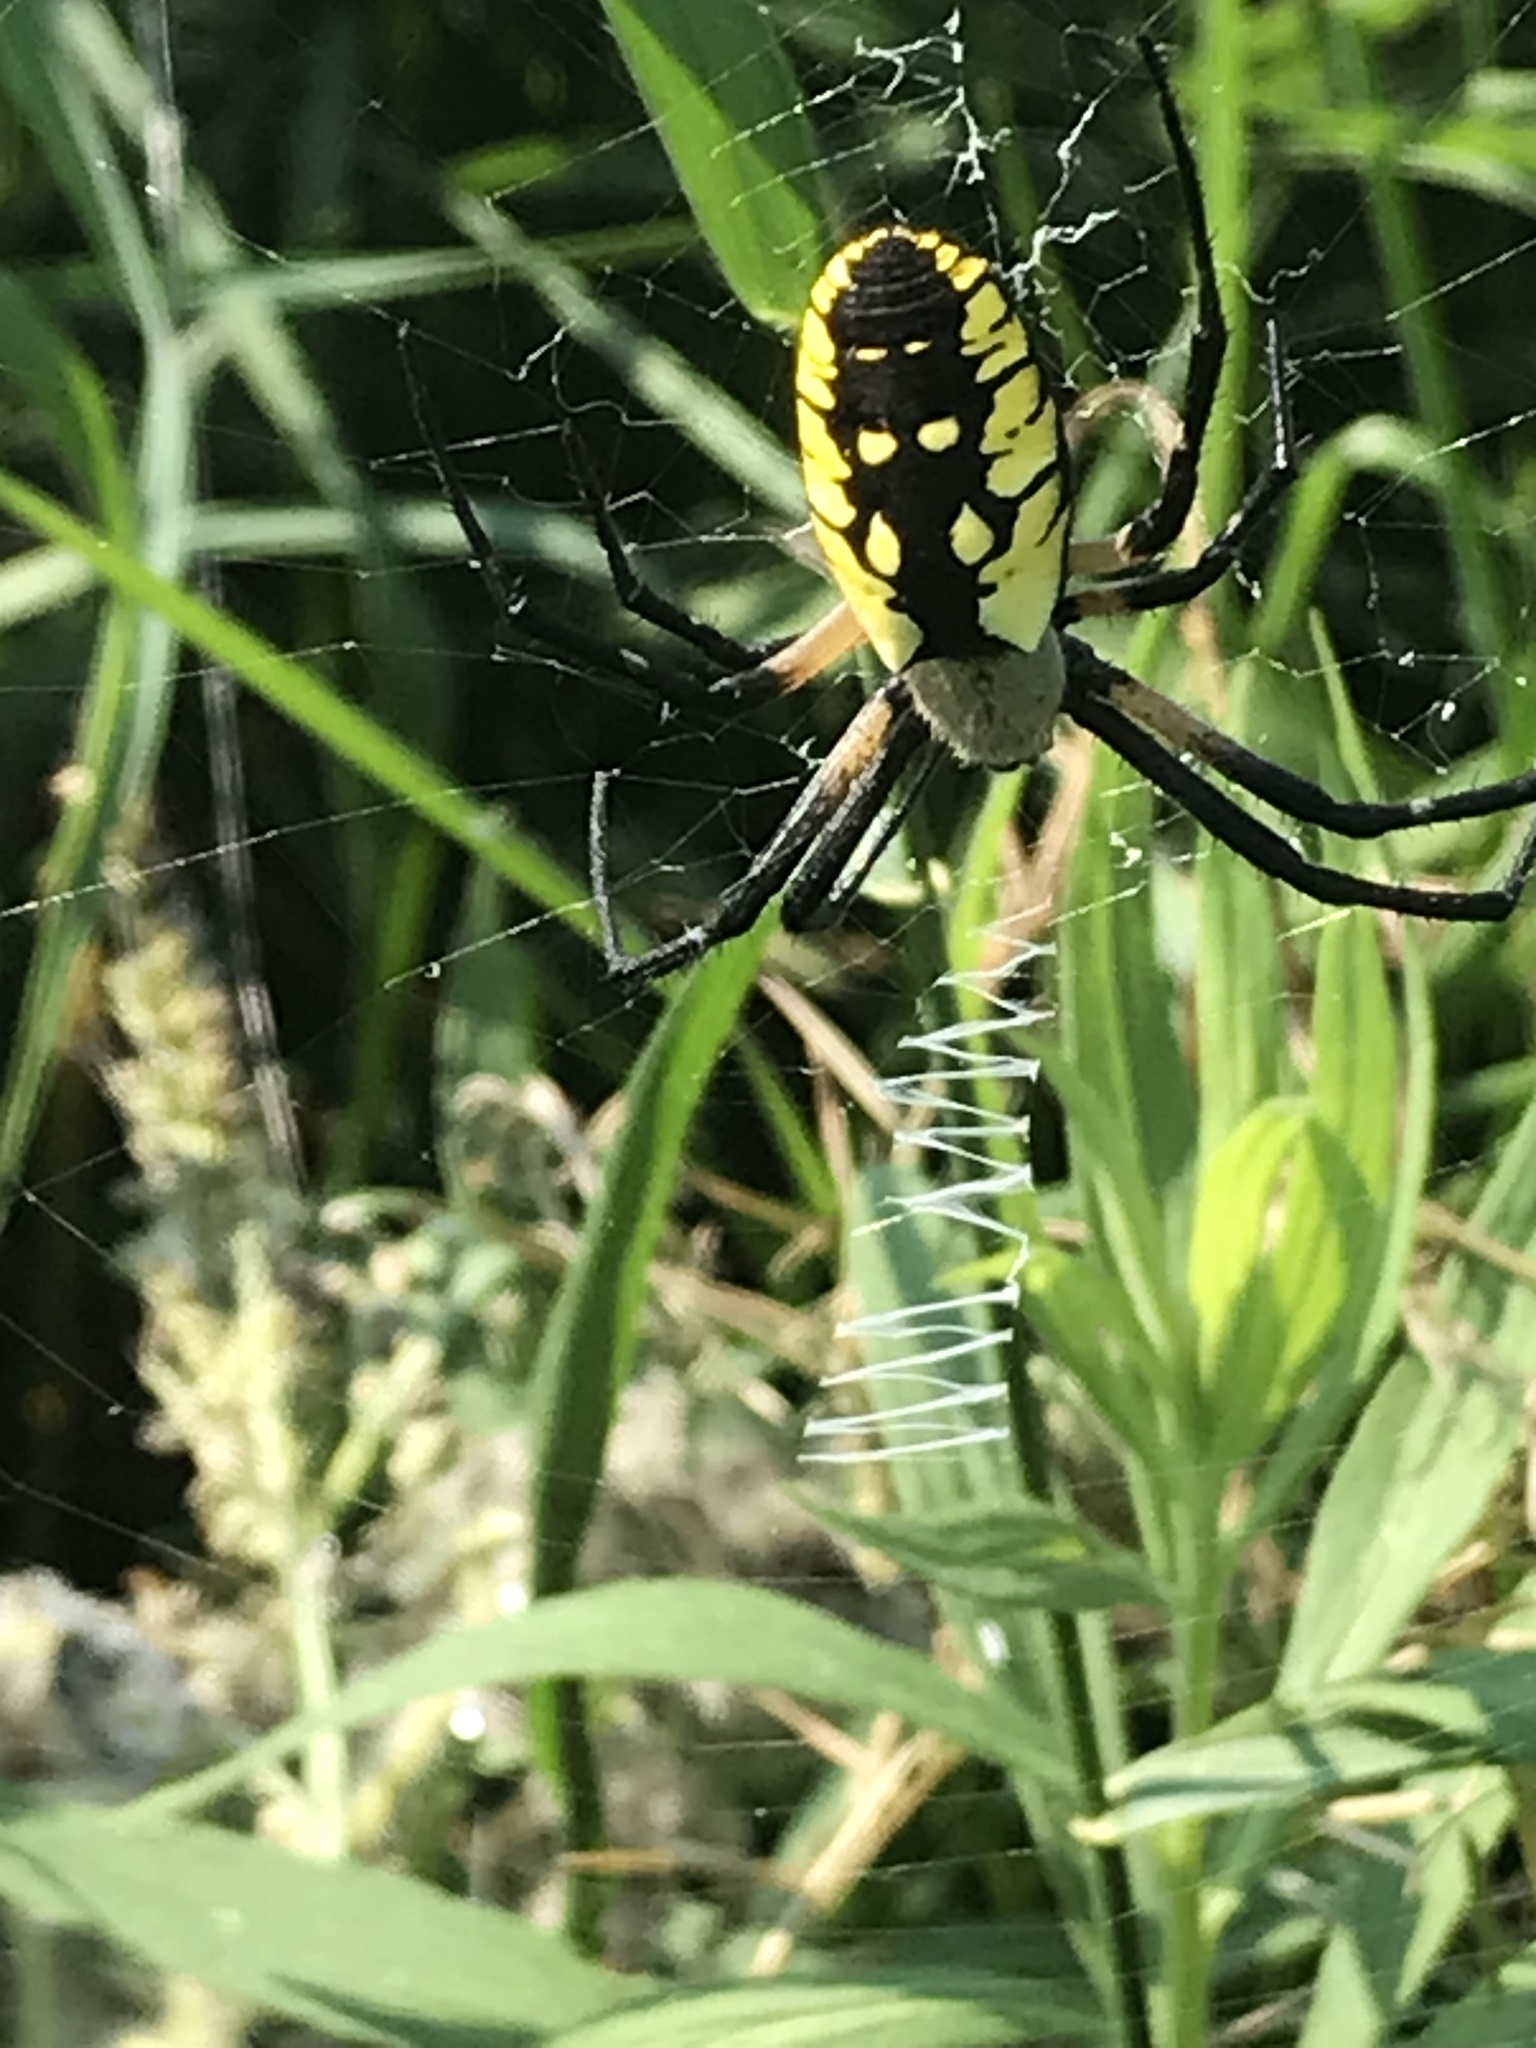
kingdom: Animalia
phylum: Arthropoda
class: Arachnida
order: Araneae
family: Araneidae
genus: Argiope
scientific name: Argiope aurantia
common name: Orb weavers
